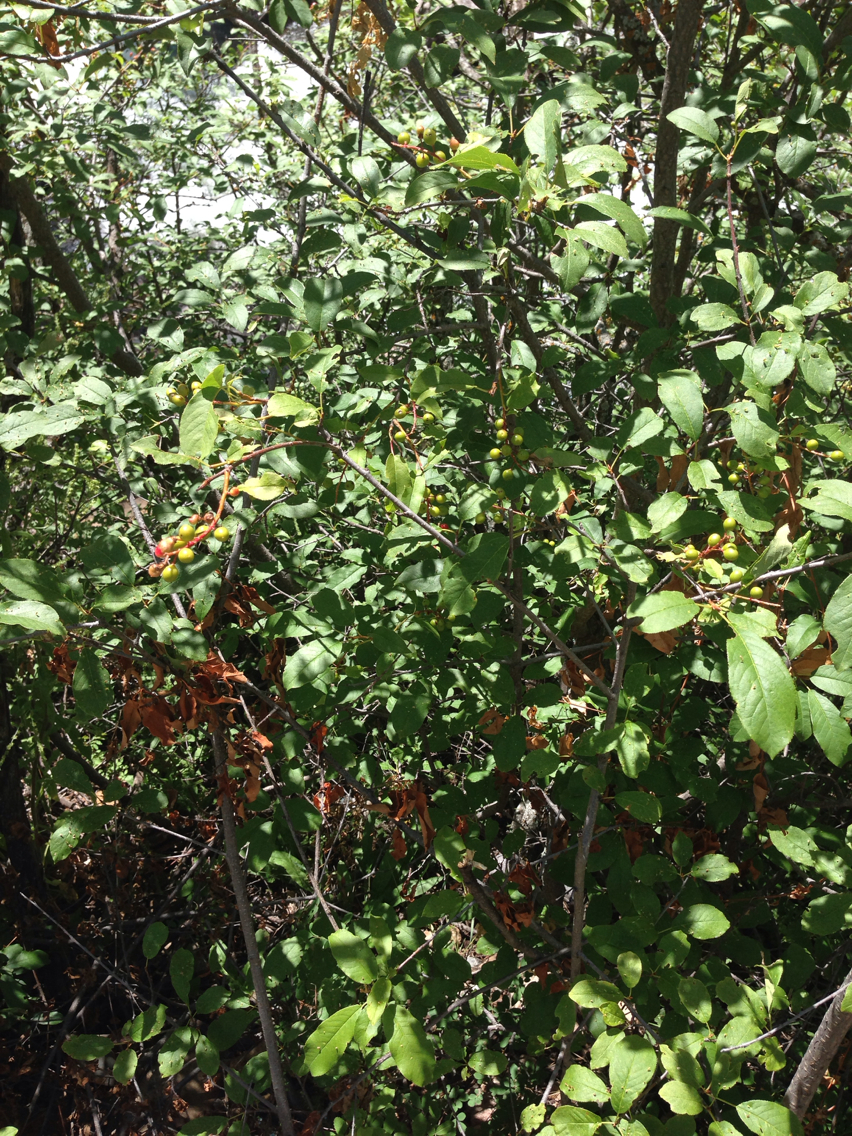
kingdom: Plantae
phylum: Tracheophyta
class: Magnoliopsida
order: Rosales
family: Rosaceae
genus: Prunus
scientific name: Prunus virginiana
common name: Chokecherry
